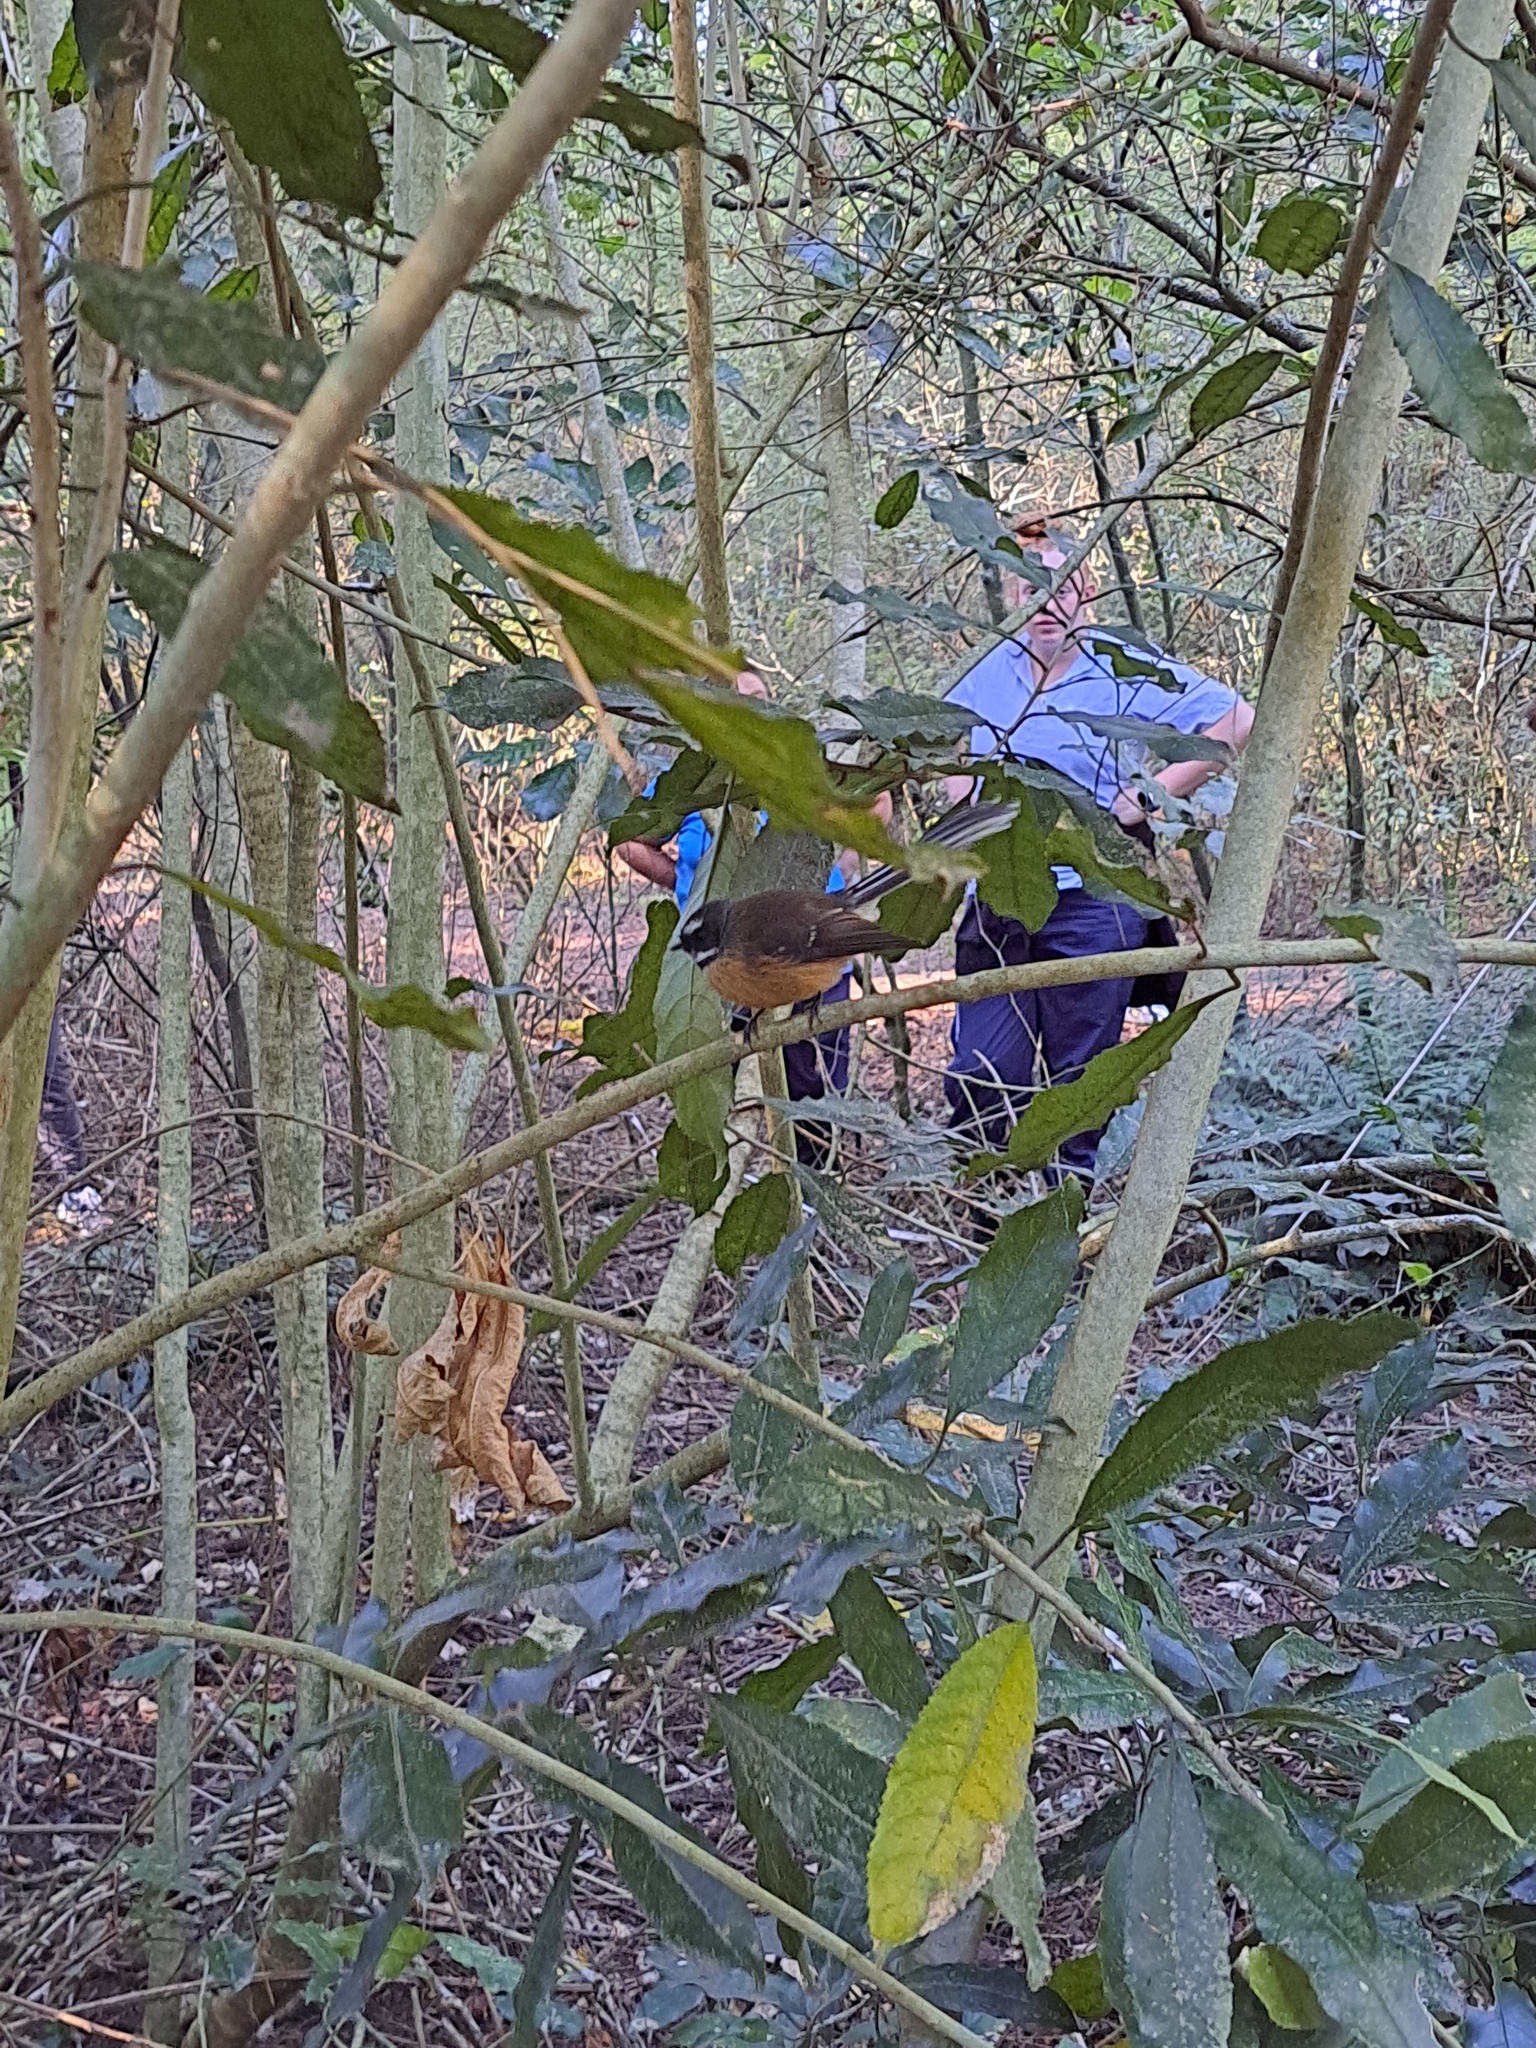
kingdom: Animalia
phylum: Chordata
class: Aves
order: Passeriformes
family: Rhipiduridae
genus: Rhipidura
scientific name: Rhipidura fuliginosa
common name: New zealand fantail
